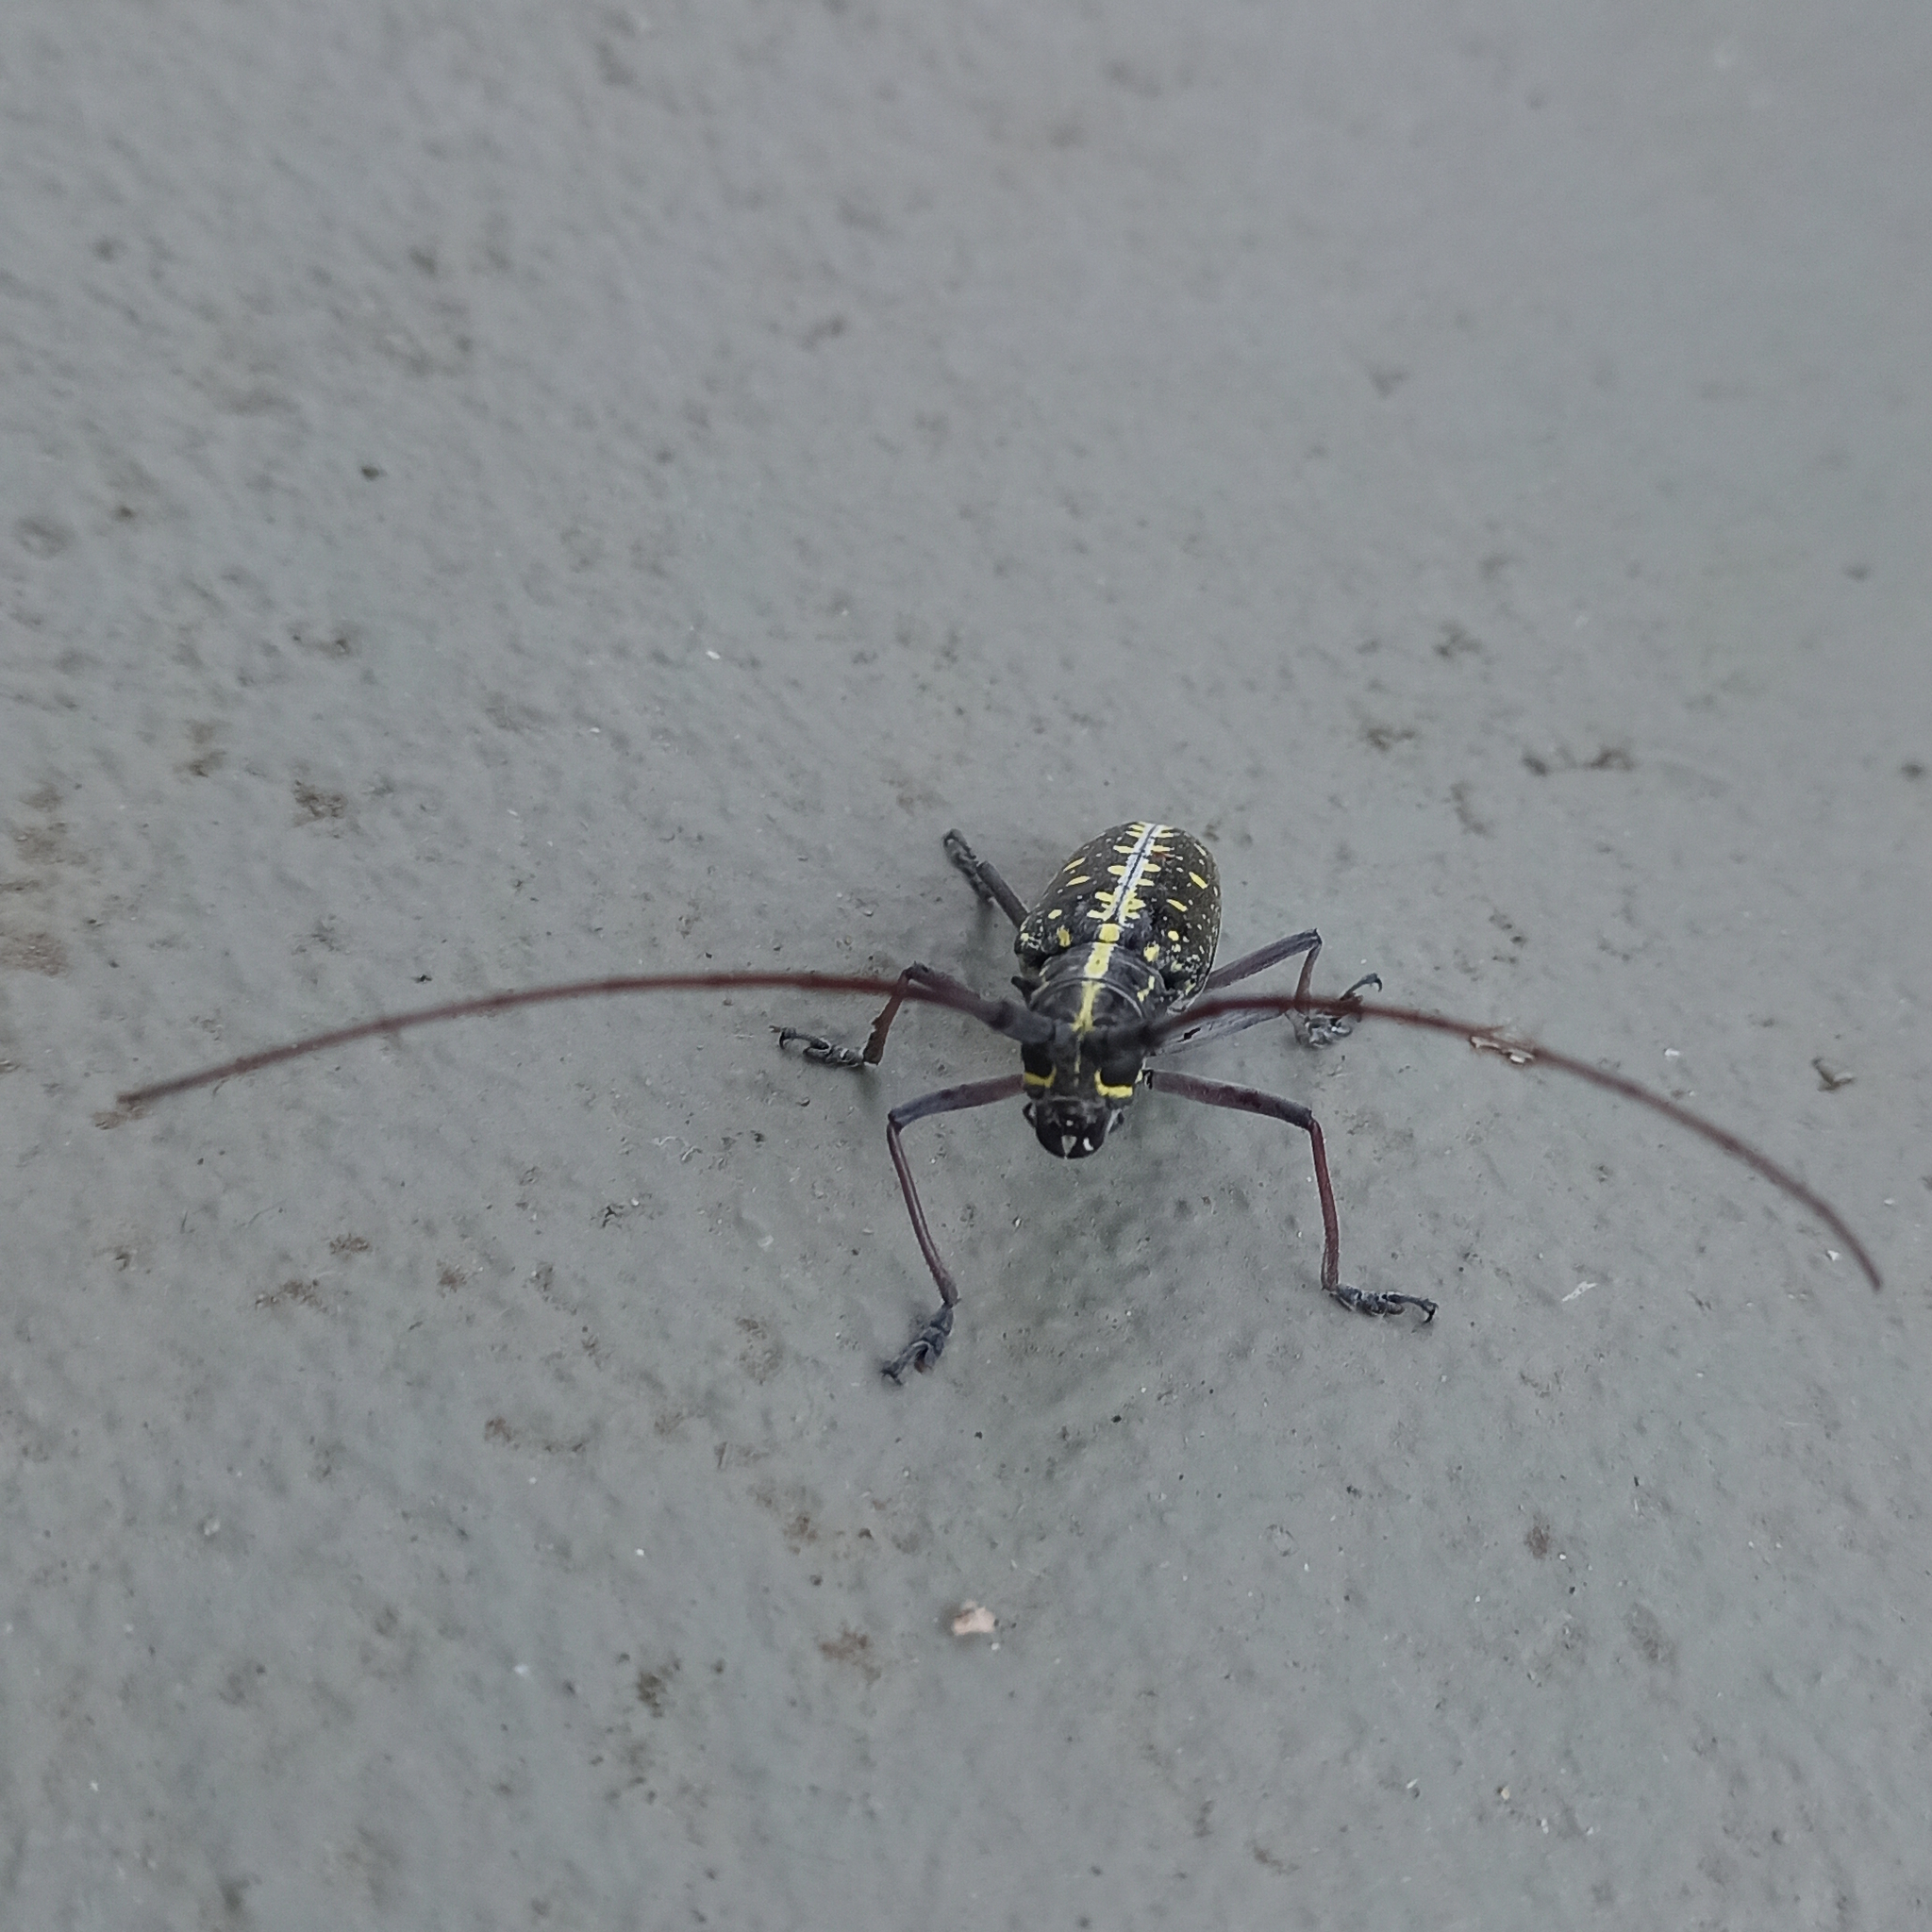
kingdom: Animalia
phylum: Arthropoda
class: Insecta
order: Coleoptera
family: Cerambycidae
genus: Taeniotes
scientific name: Taeniotes amazonum
